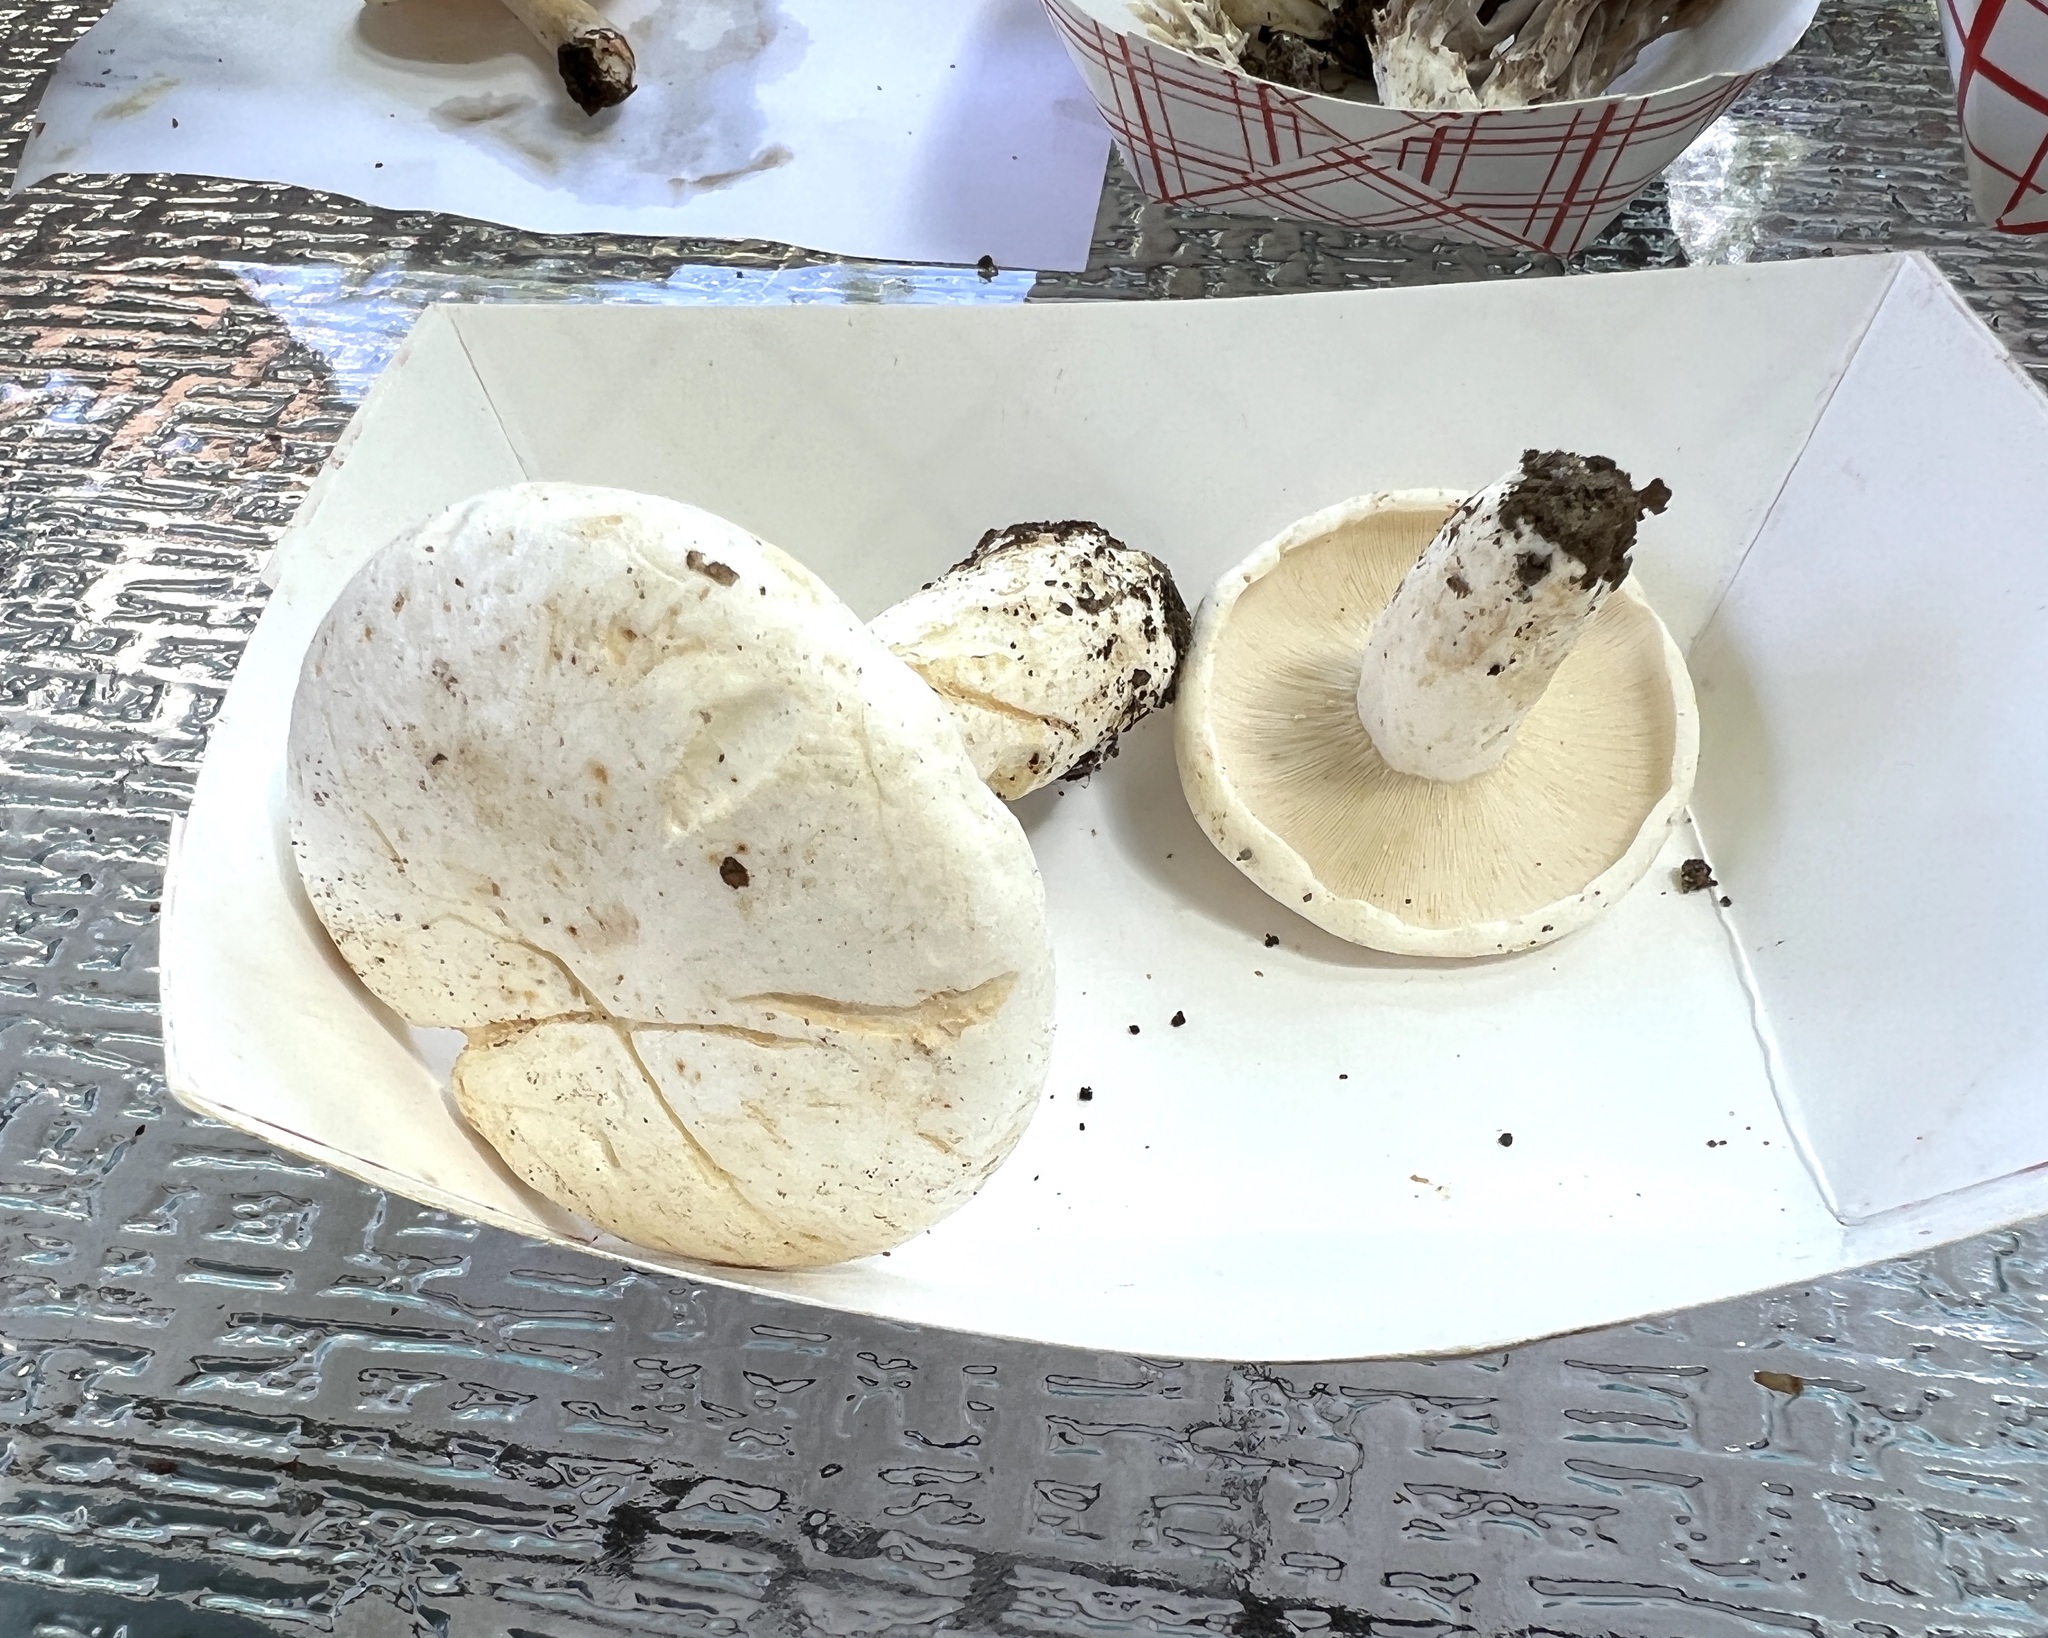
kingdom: Fungi
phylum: Basidiomycota
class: Agaricomycetes
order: Russulales
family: Russulaceae
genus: Lactifluus
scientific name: Lactifluus piperatus
